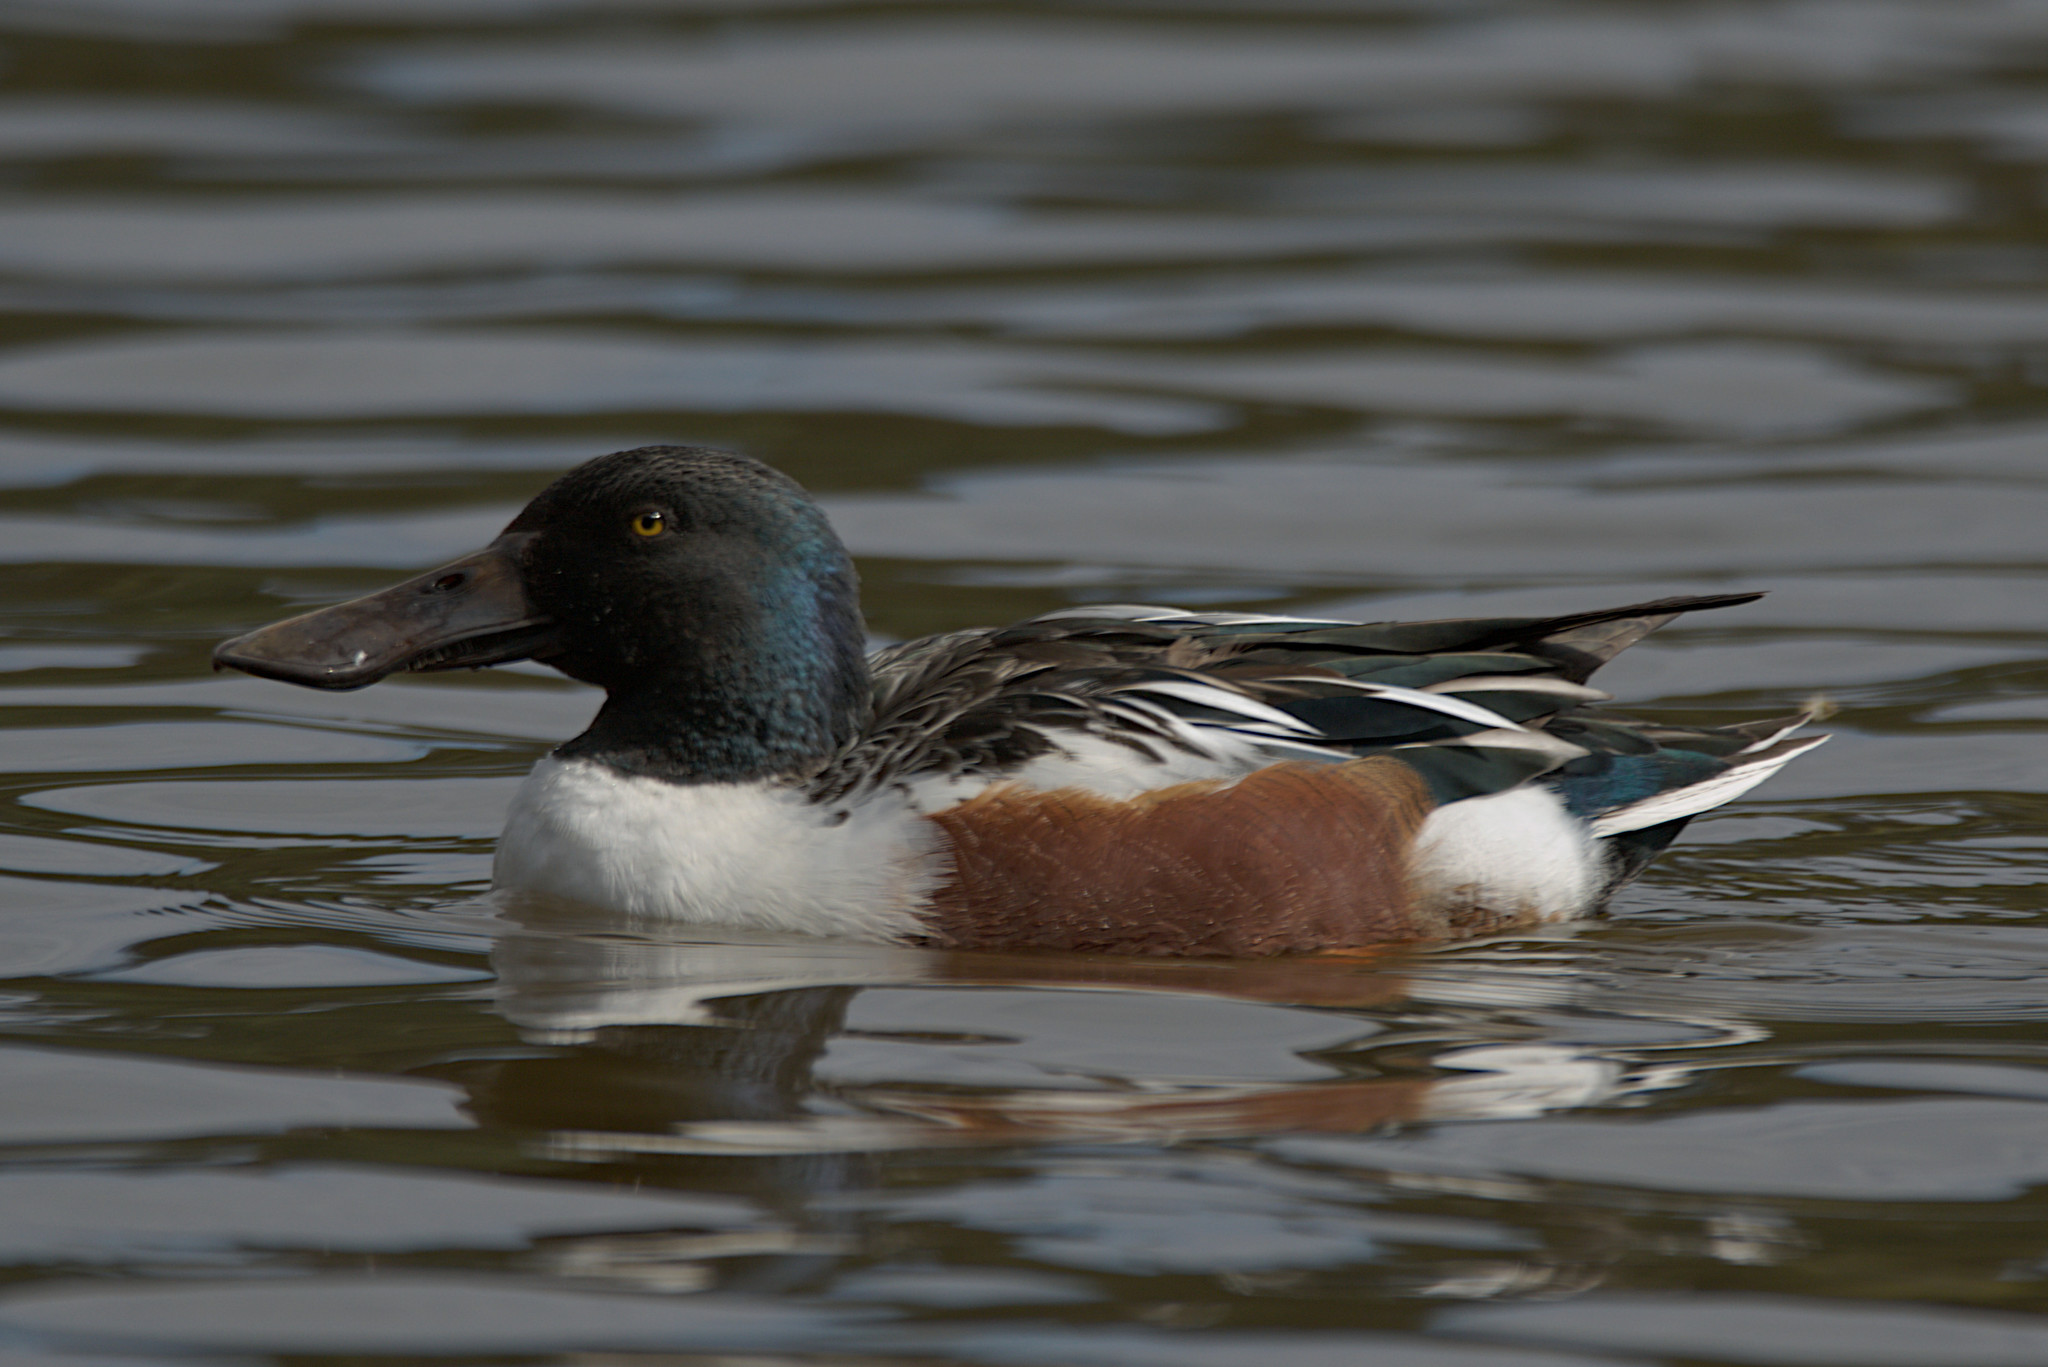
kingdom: Animalia
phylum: Chordata
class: Aves
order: Anseriformes
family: Anatidae
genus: Spatula
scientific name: Spatula clypeata
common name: Northern shoveler
